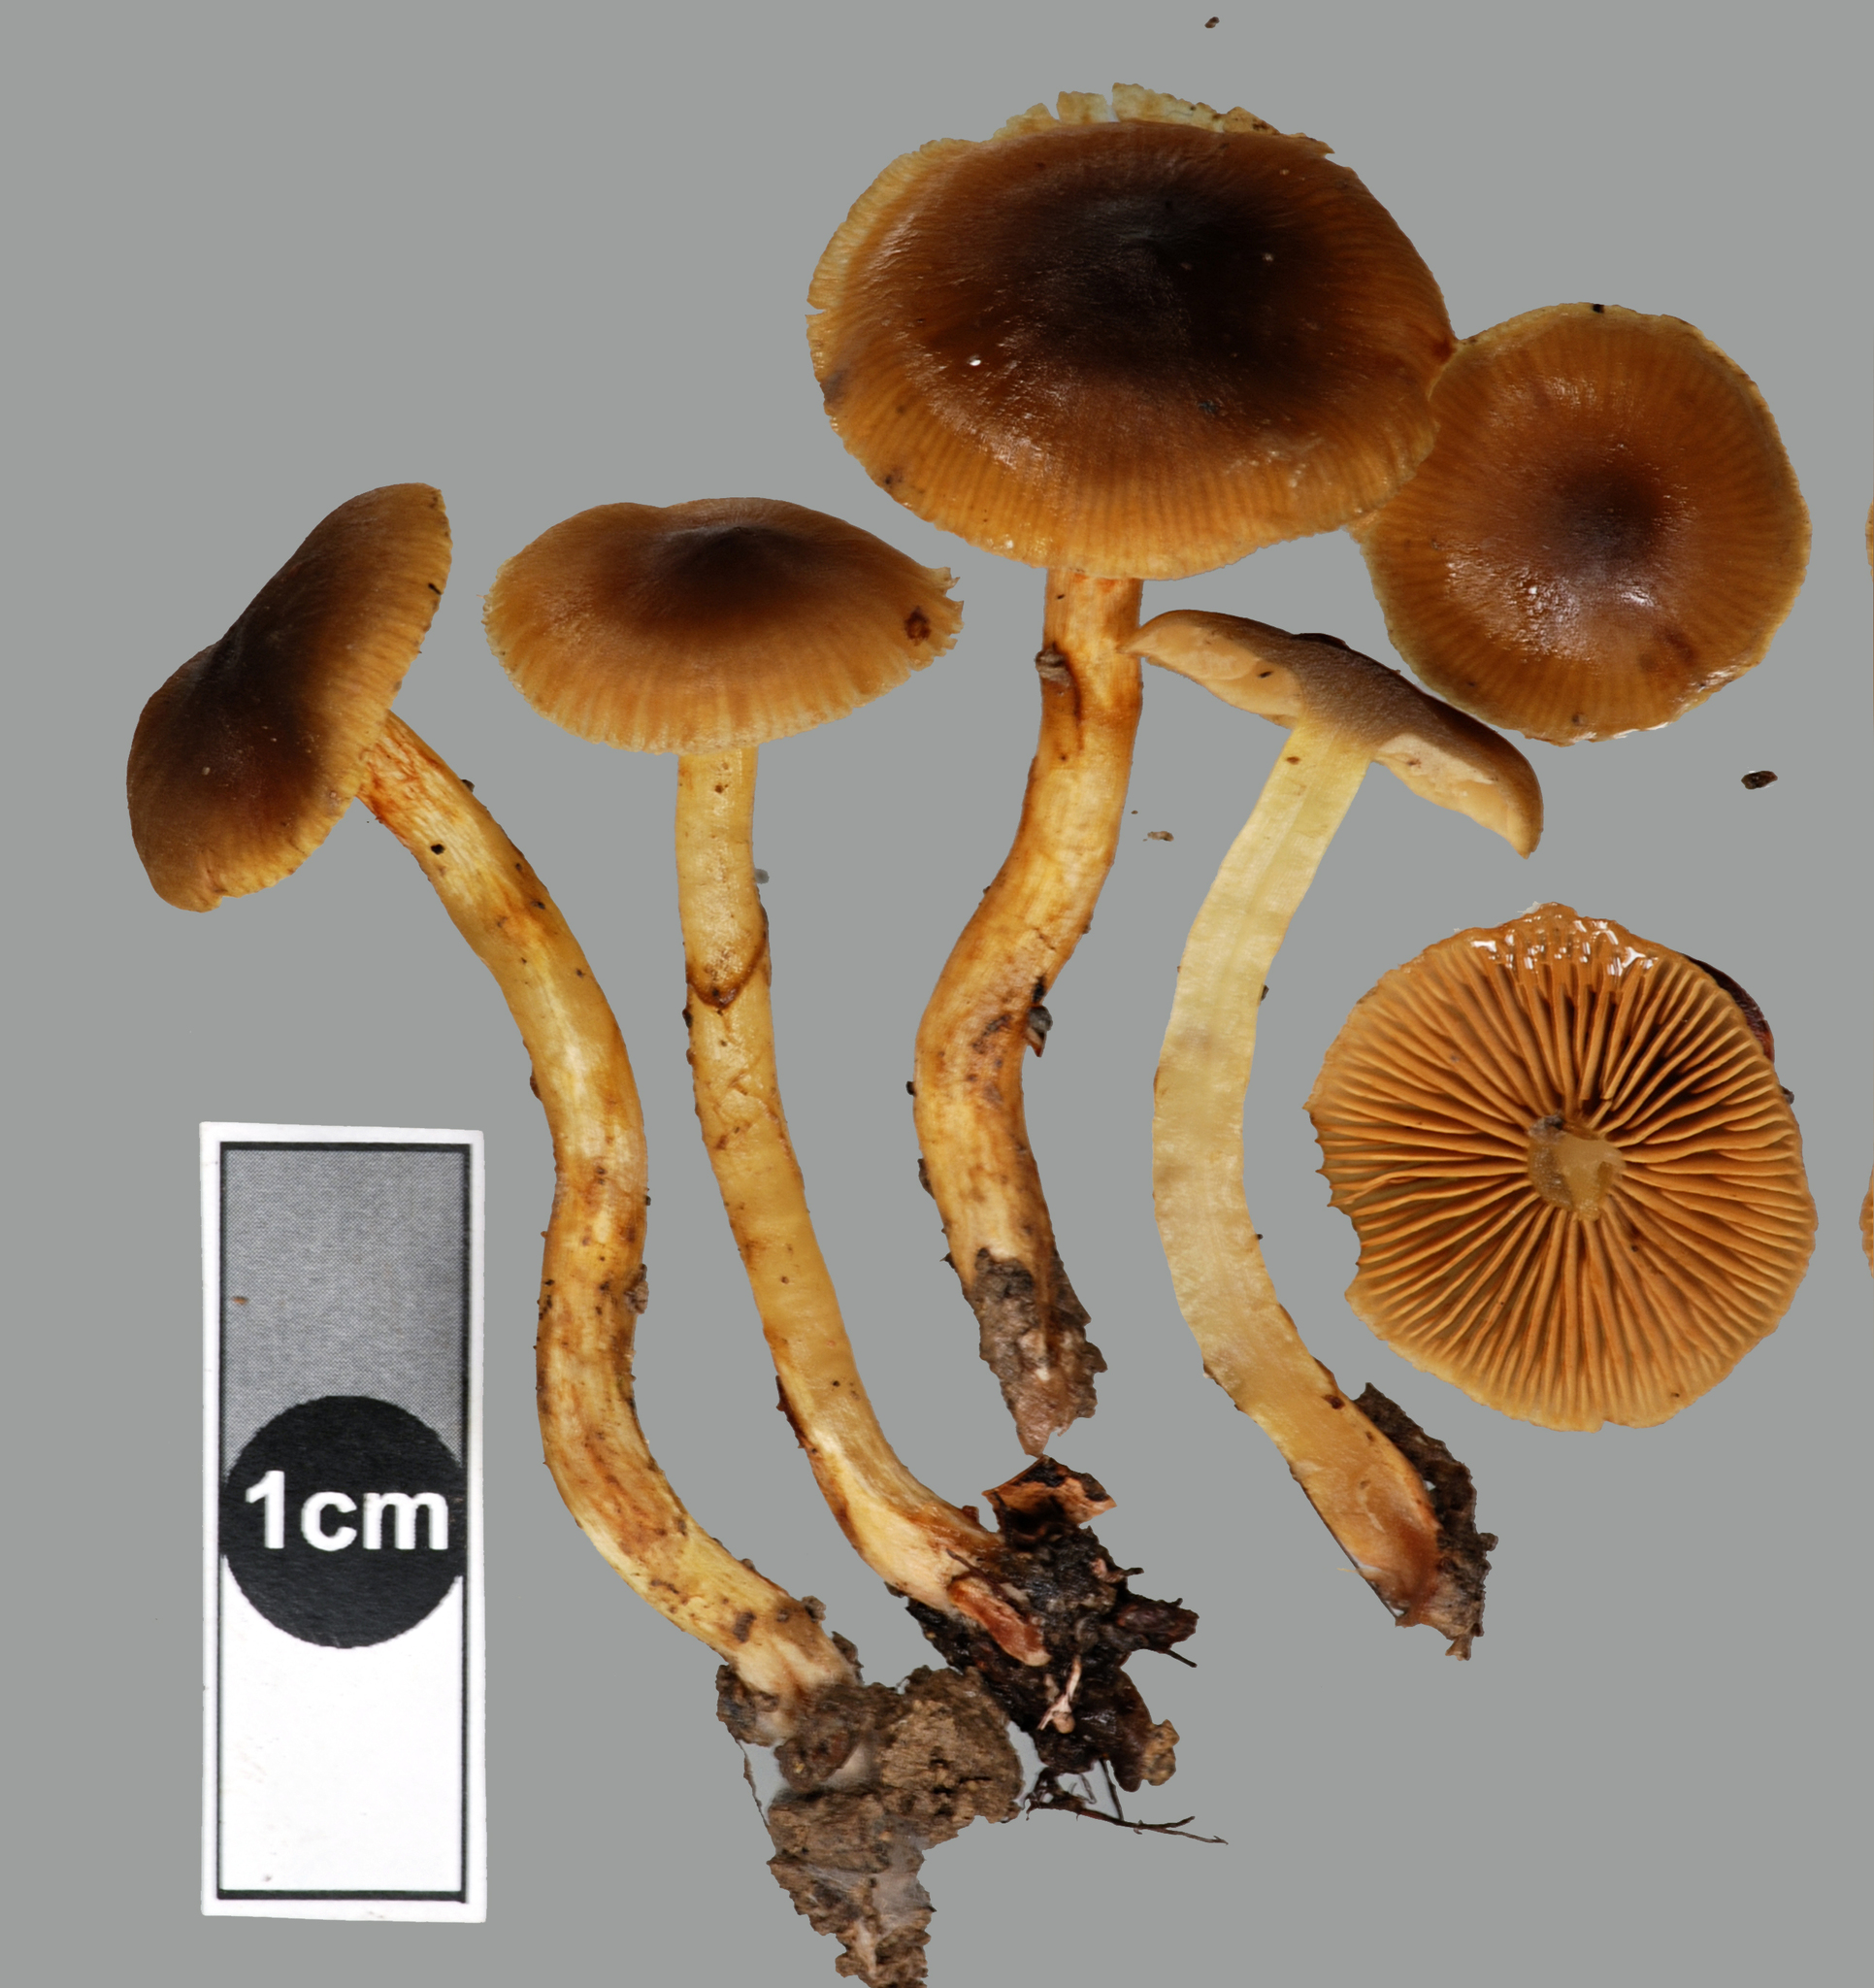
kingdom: Fungi
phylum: Basidiomycota
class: Agaricomycetes
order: Agaricales
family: Cortinariaceae
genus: Cortinarius
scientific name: Cortinarius
